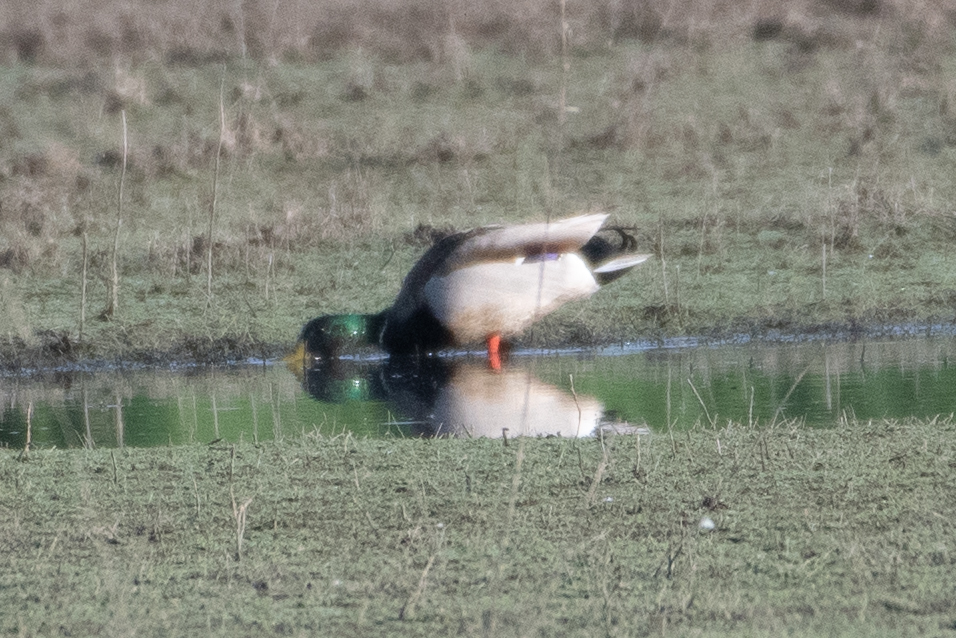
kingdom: Animalia
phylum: Chordata
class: Aves
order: Anseriformes
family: Anatidae
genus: Anas
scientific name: Anas platyrhynchos
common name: Mallard
